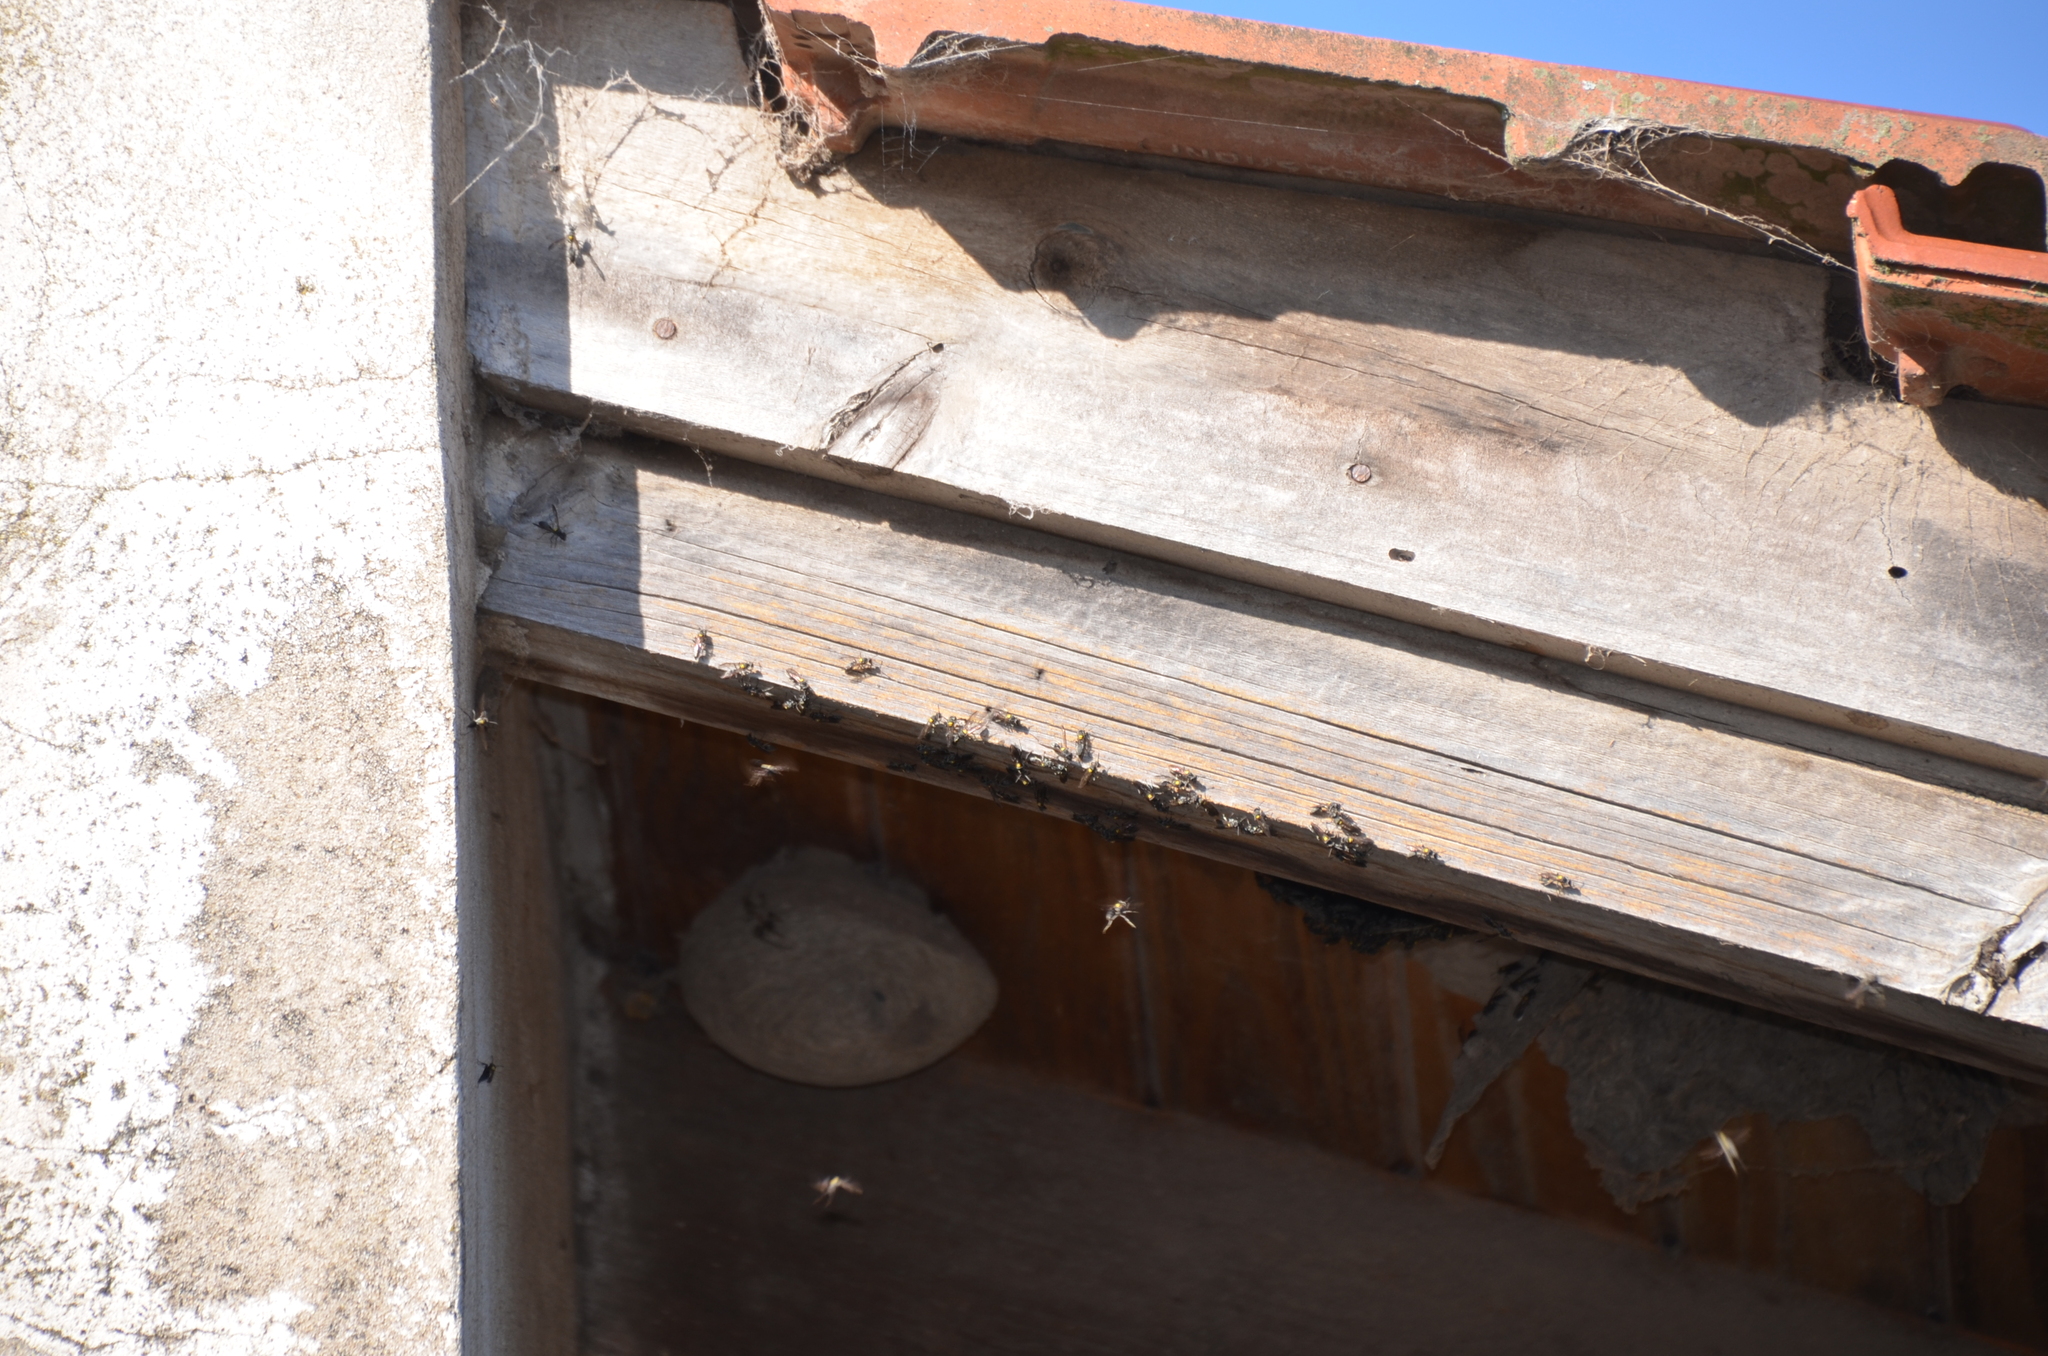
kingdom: Animalia
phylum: Arthropoda
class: Insecta
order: Hymenoptera
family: Eumenidae
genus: Polybia
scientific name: Polybia scutellaris
